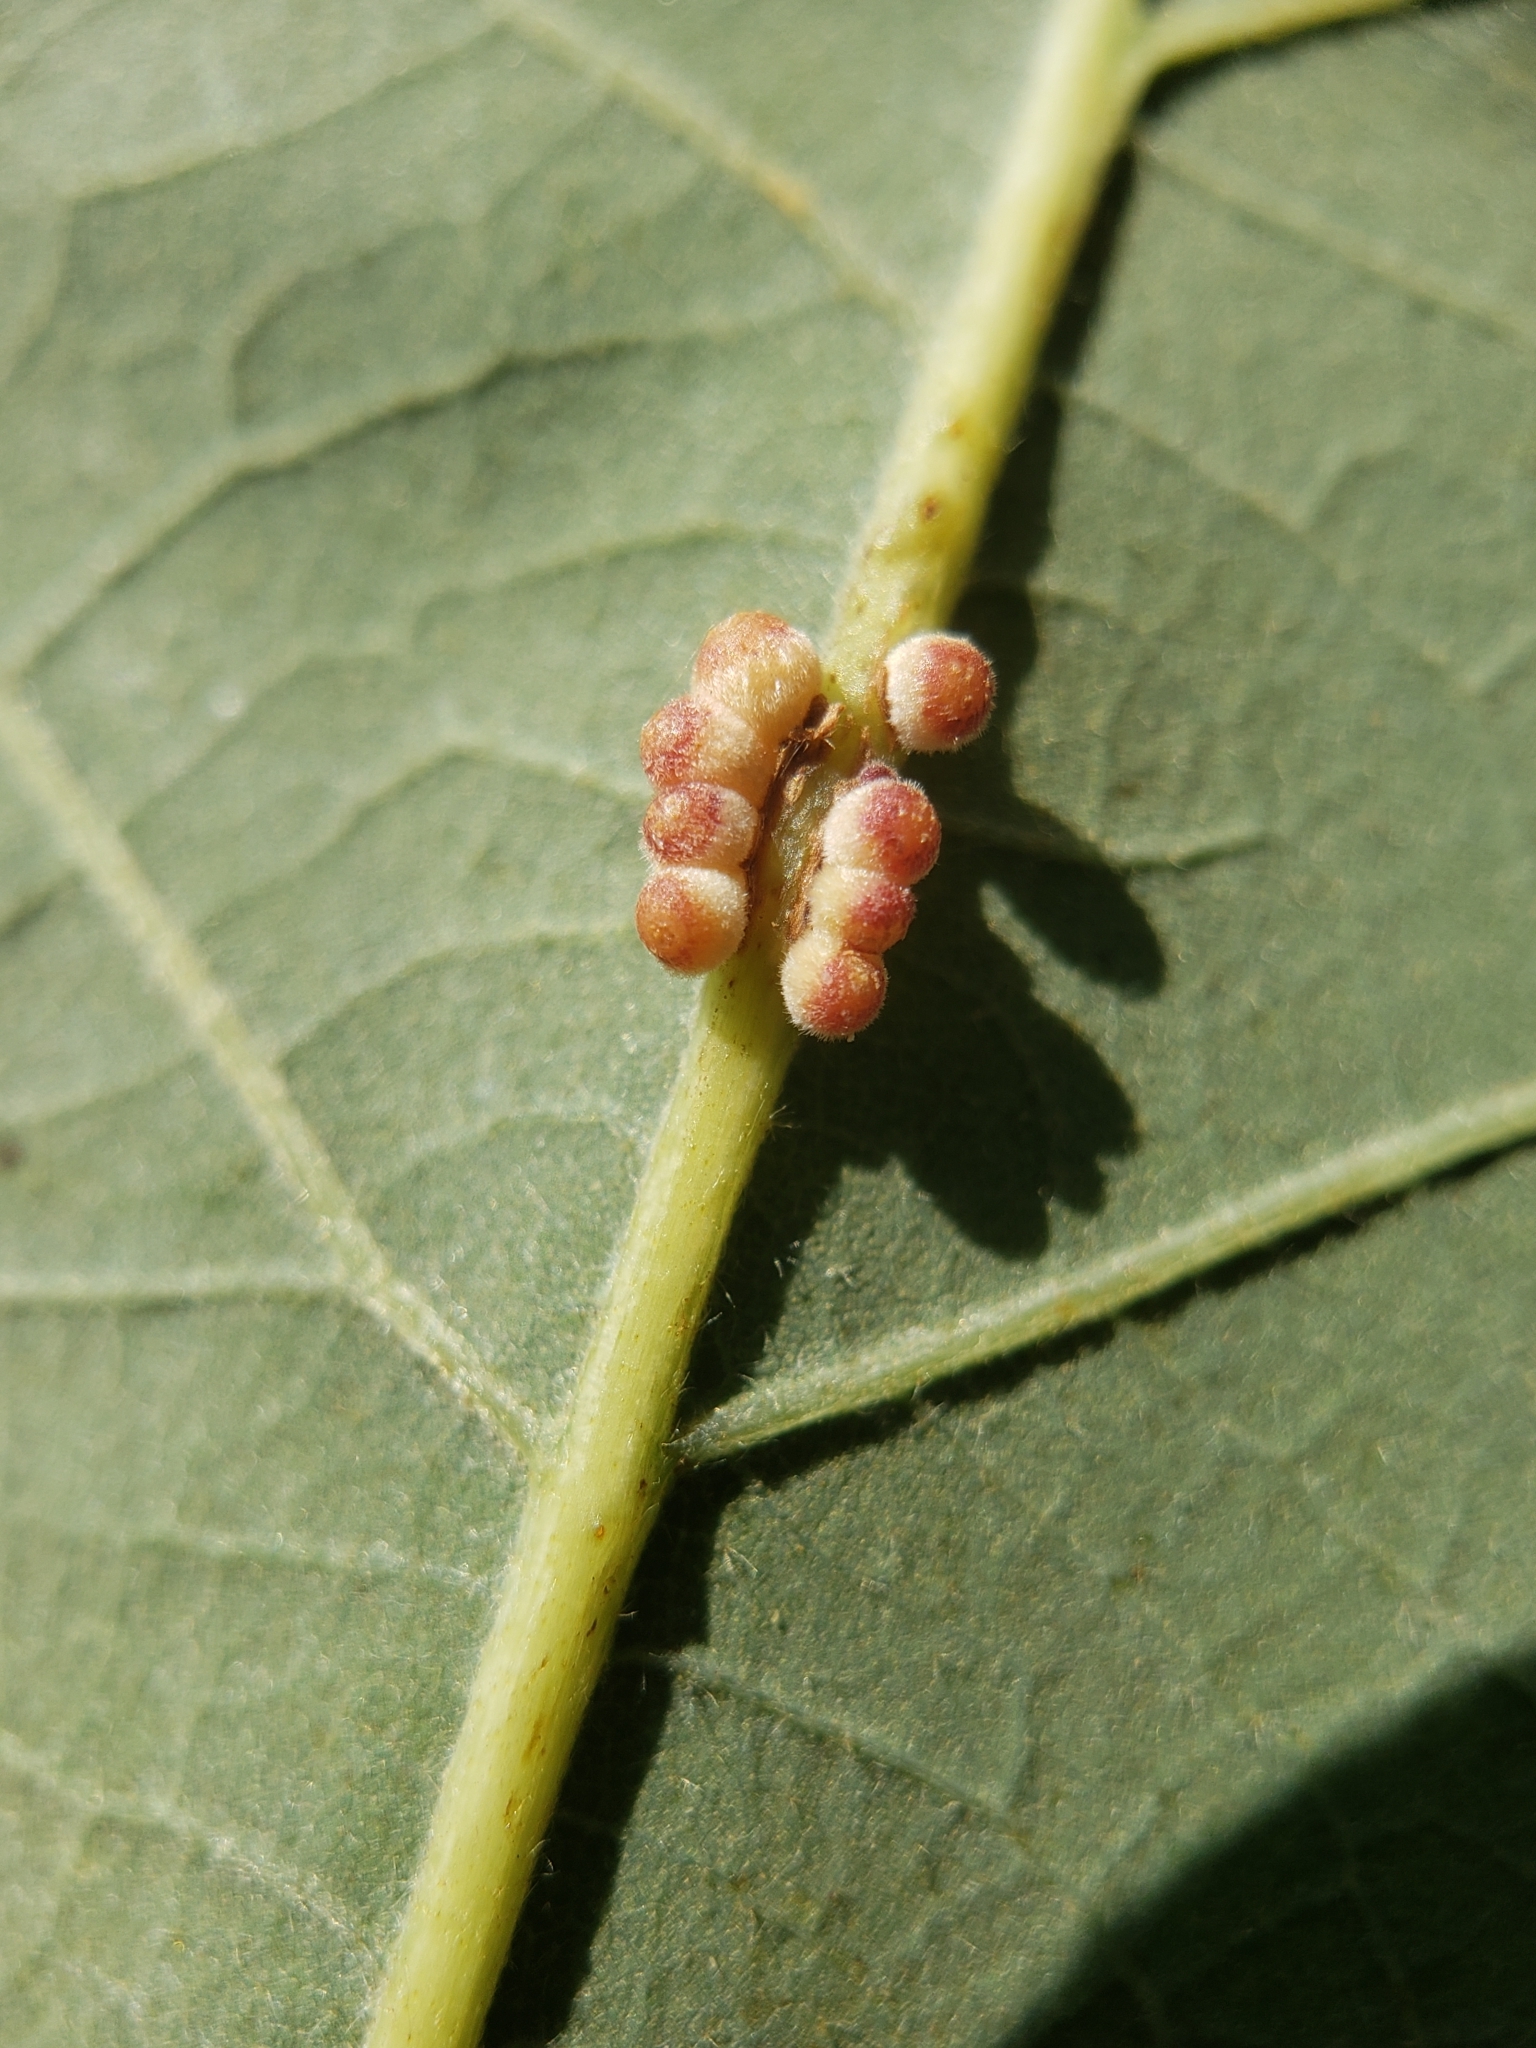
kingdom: Animalia
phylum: Arthropoda
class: Insecta
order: Hymenoptera
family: Cynipidae
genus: Andricus
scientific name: Andricus
